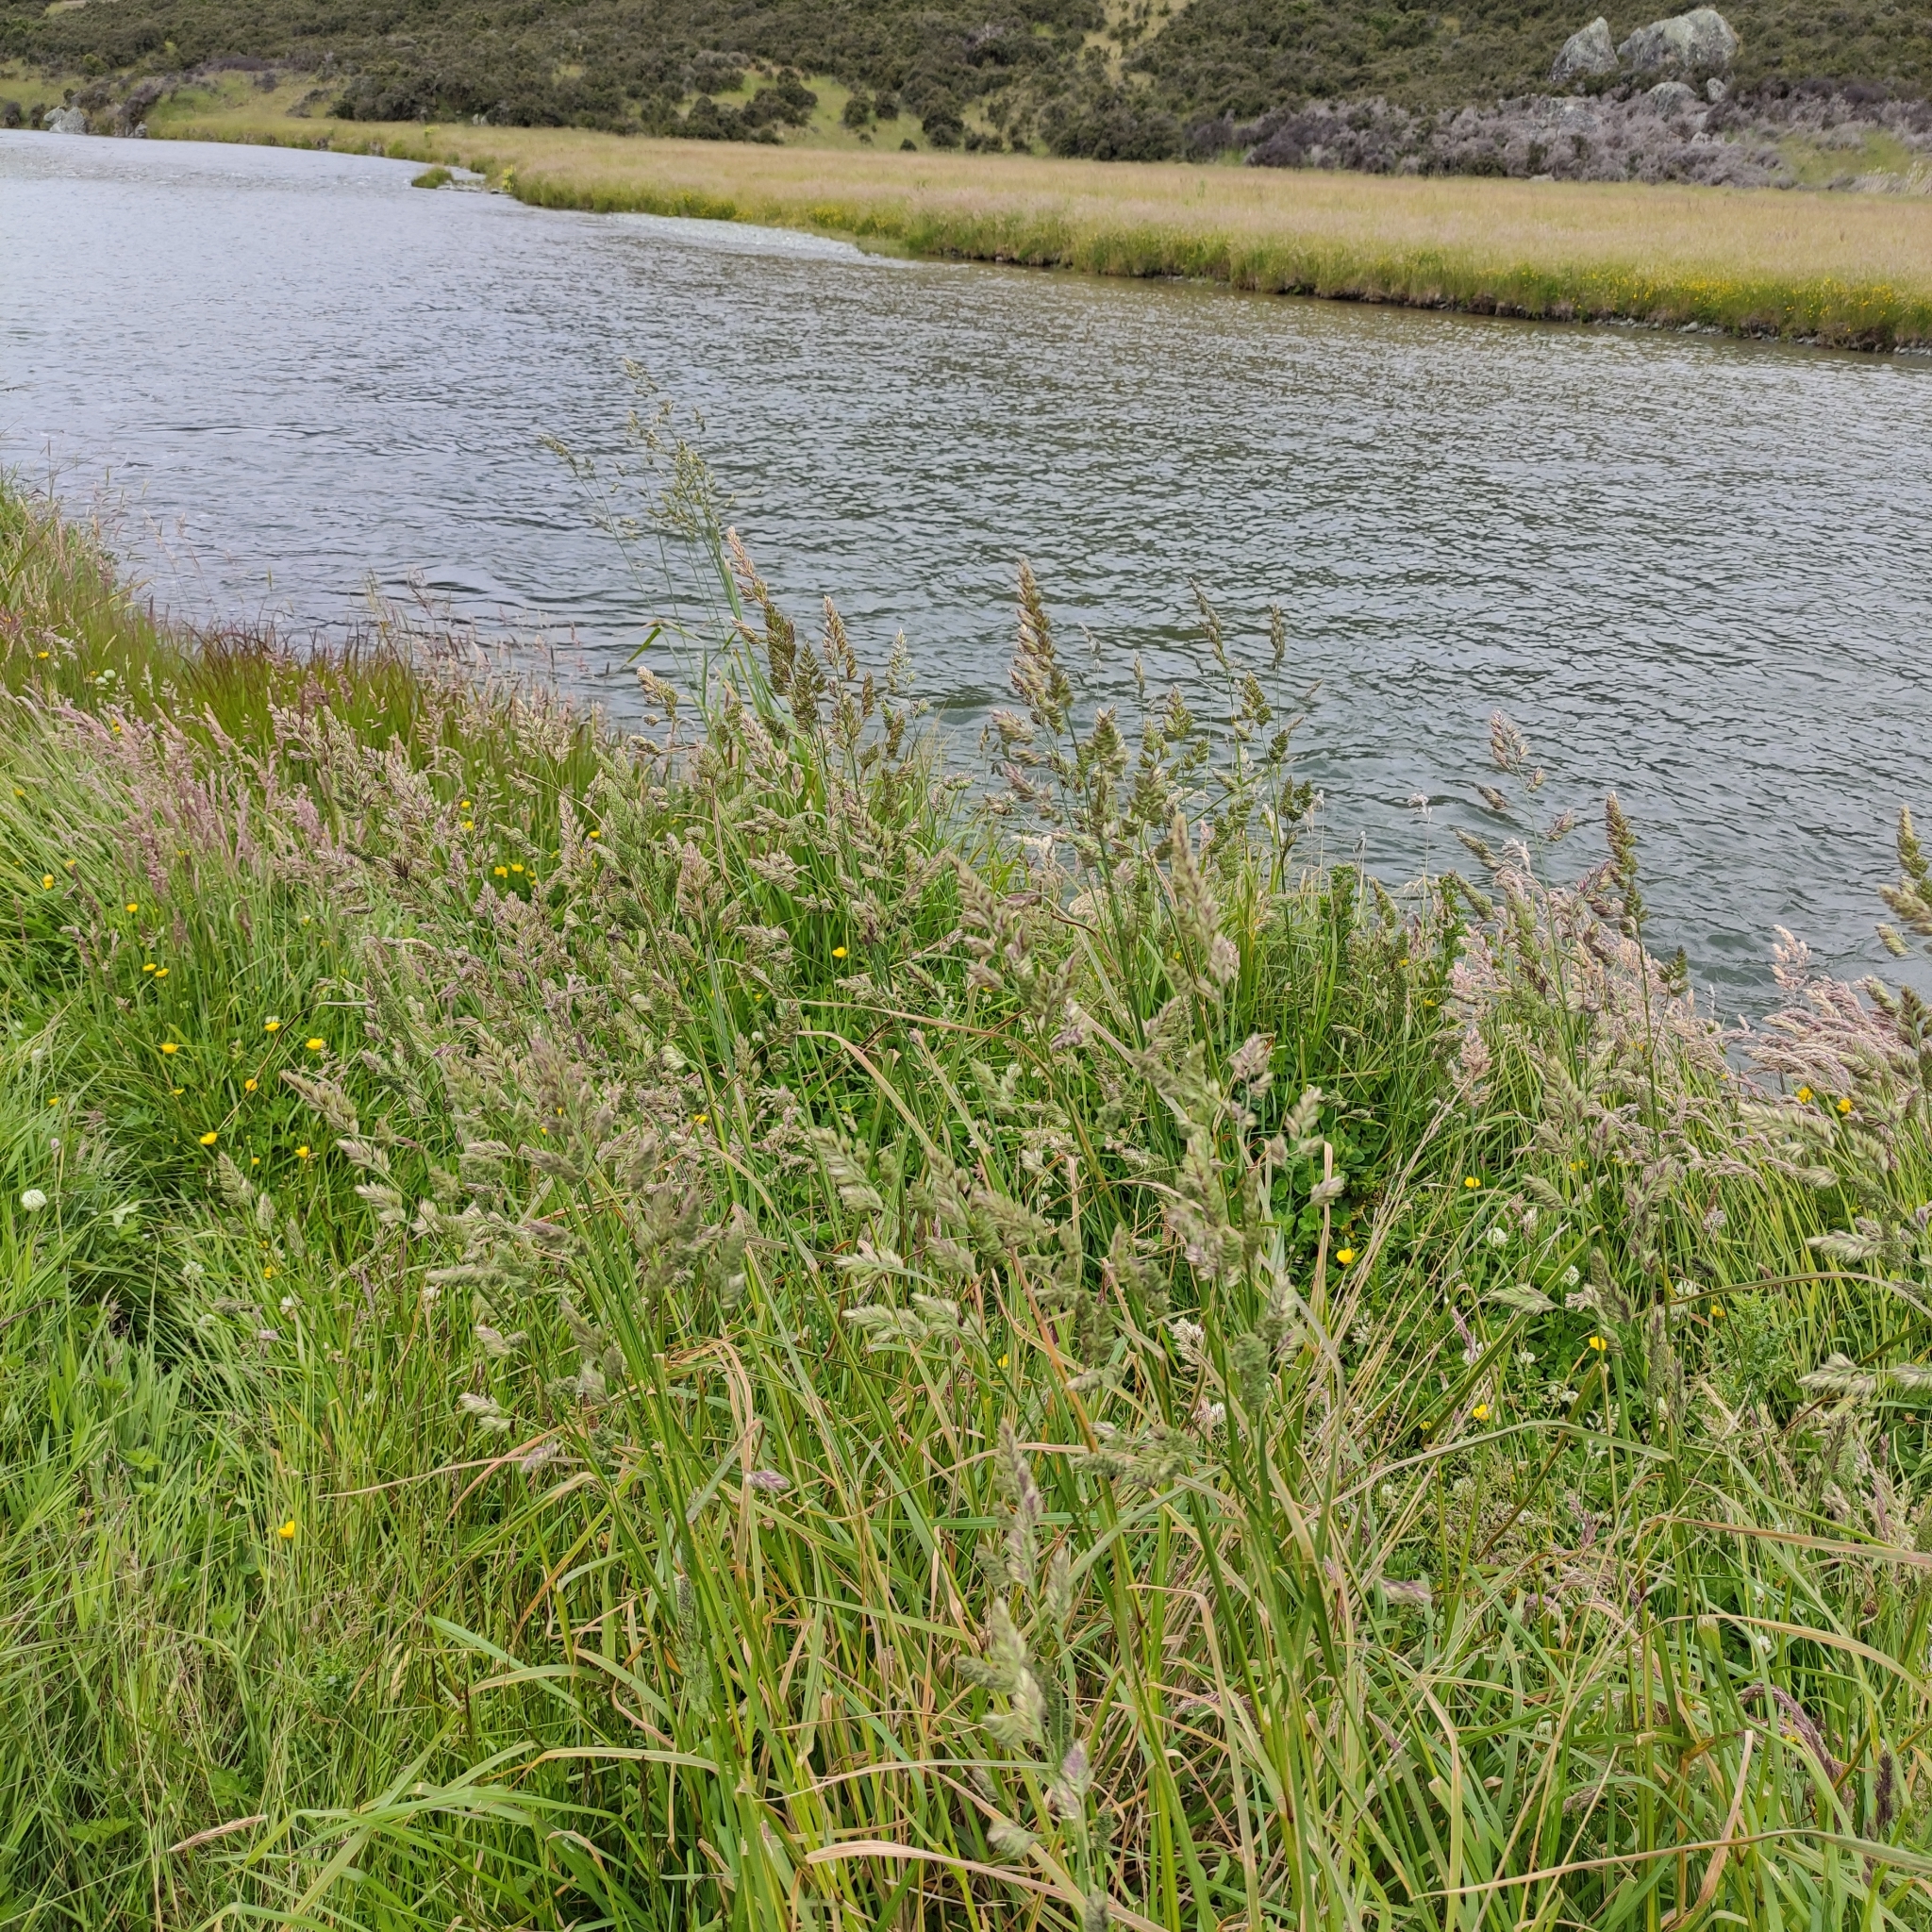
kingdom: Plantae
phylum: Tracheophyta
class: Liliopsida
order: Poales
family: Poaceae
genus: Dactylis
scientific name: Dactylis glomerata
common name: Orchardgrass
